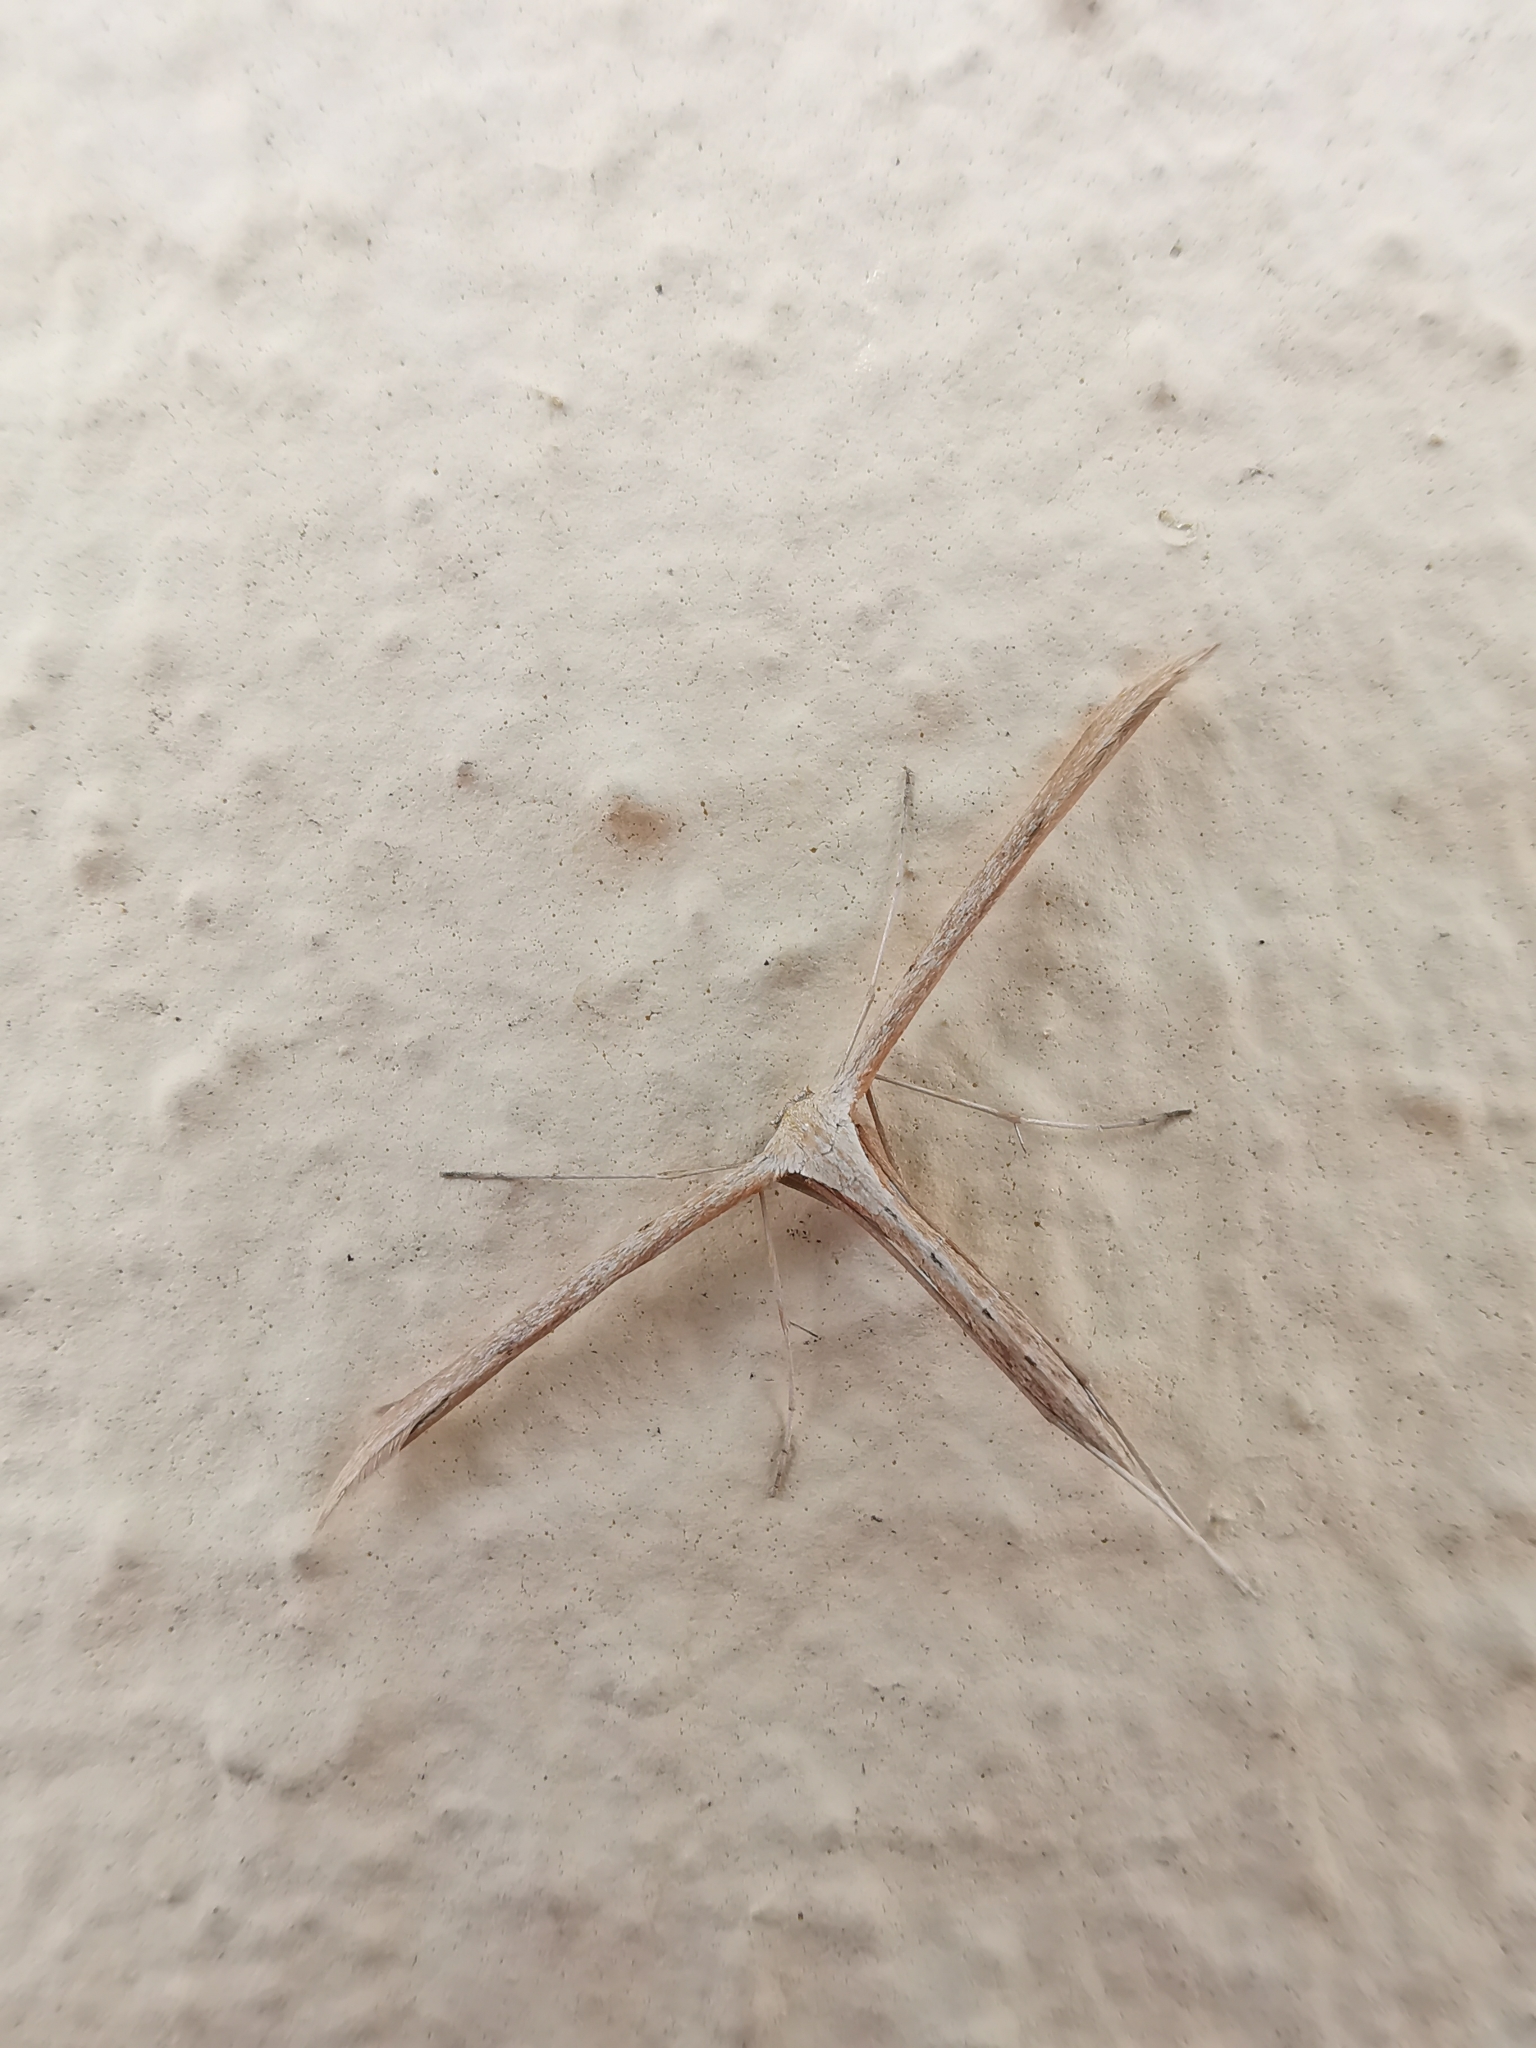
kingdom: Animalia
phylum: Arthropoda
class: Insecta
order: Lepidoptera
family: Pterophoridae
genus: Emmelina
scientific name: Emmelina monodactyla
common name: Common plume
